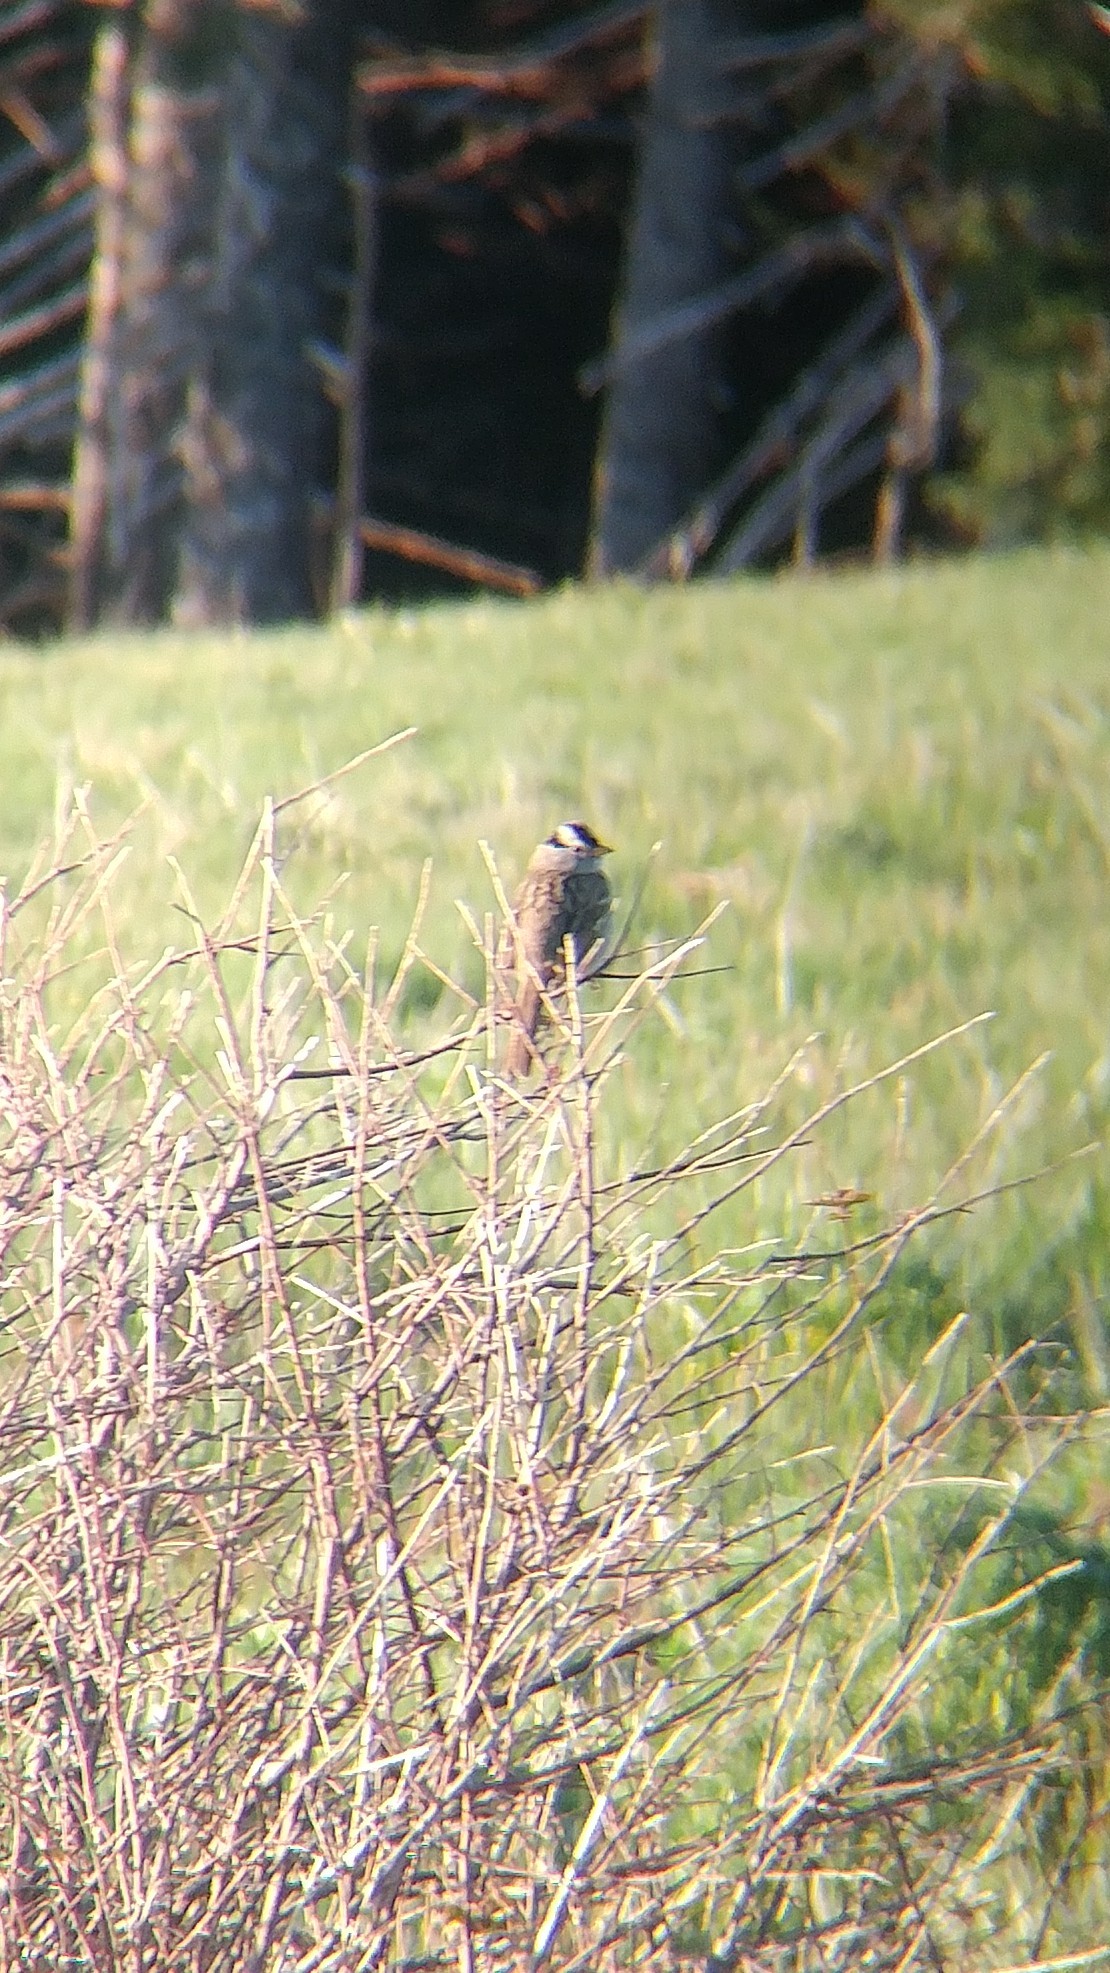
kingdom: Animalia
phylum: Chordata
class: Aves
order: Passeriformes
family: Passerellidae
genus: Zonotrichia
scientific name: Zonotrichia leucophrys
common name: White-crowned sparrow
